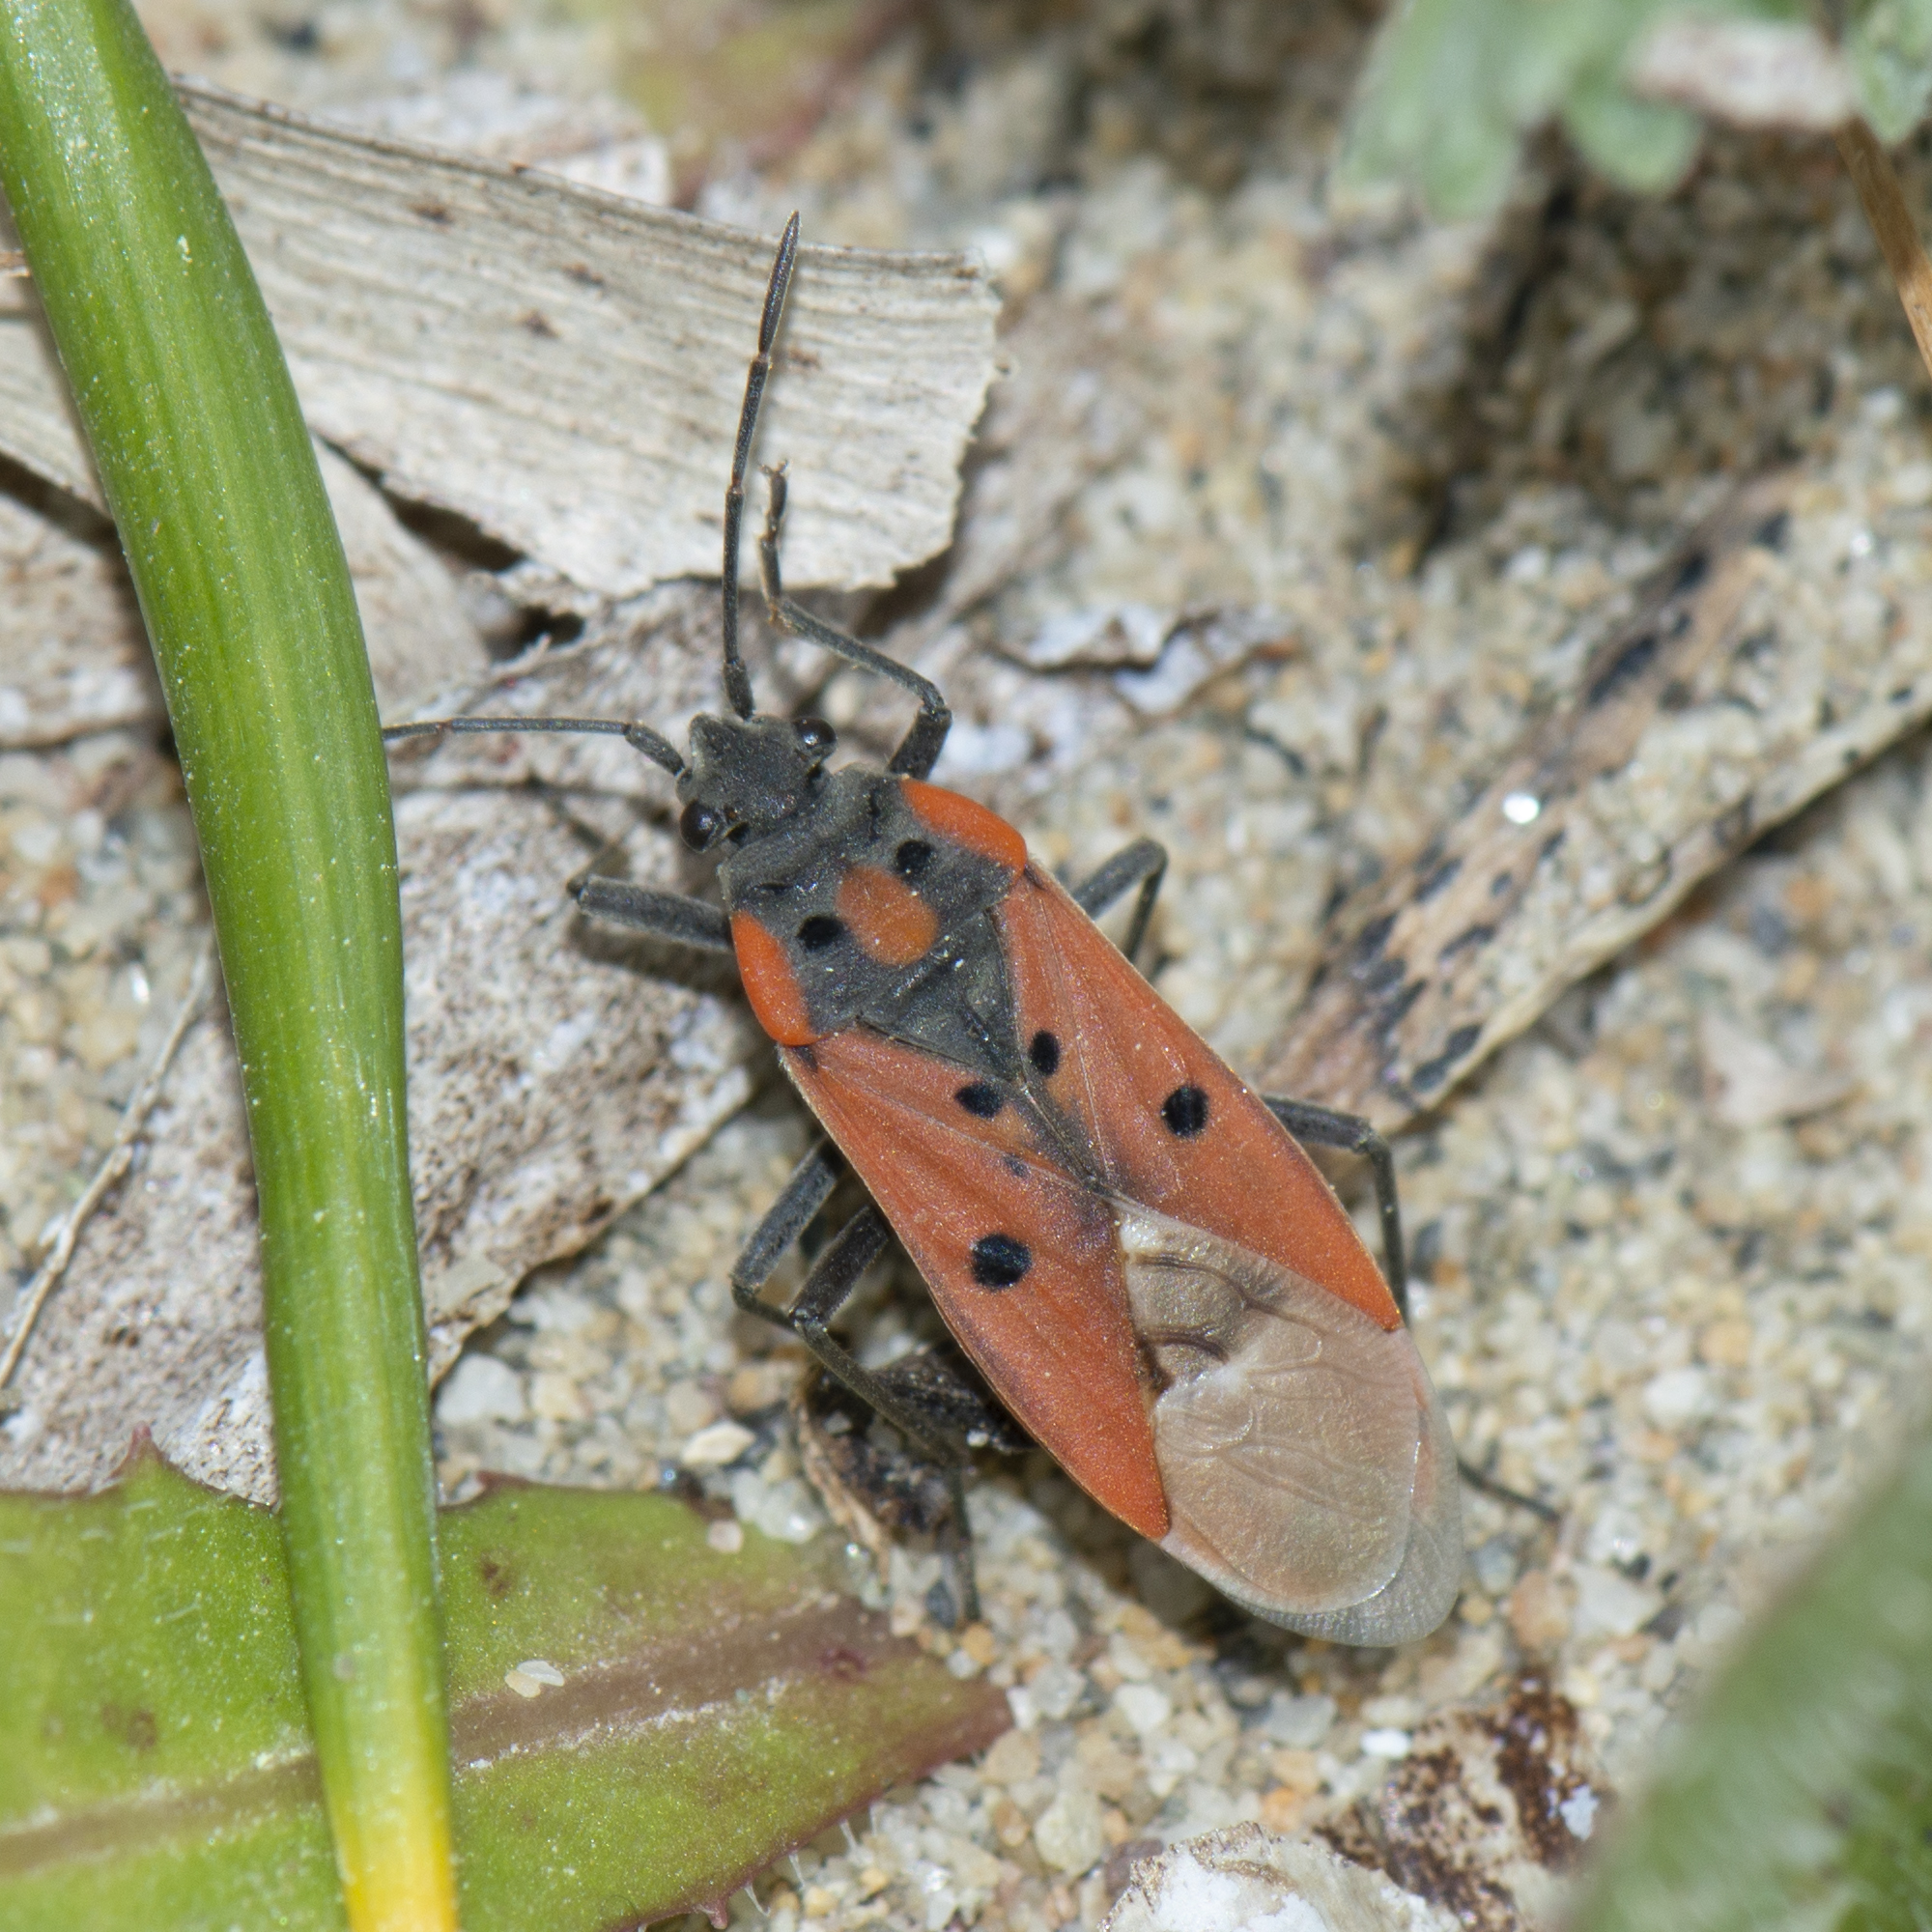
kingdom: Animalia
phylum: Arthropoda
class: Insecta
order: Hemiptera
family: Lygaeidae
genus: Lygaeus
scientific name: Lygaeus creticus
